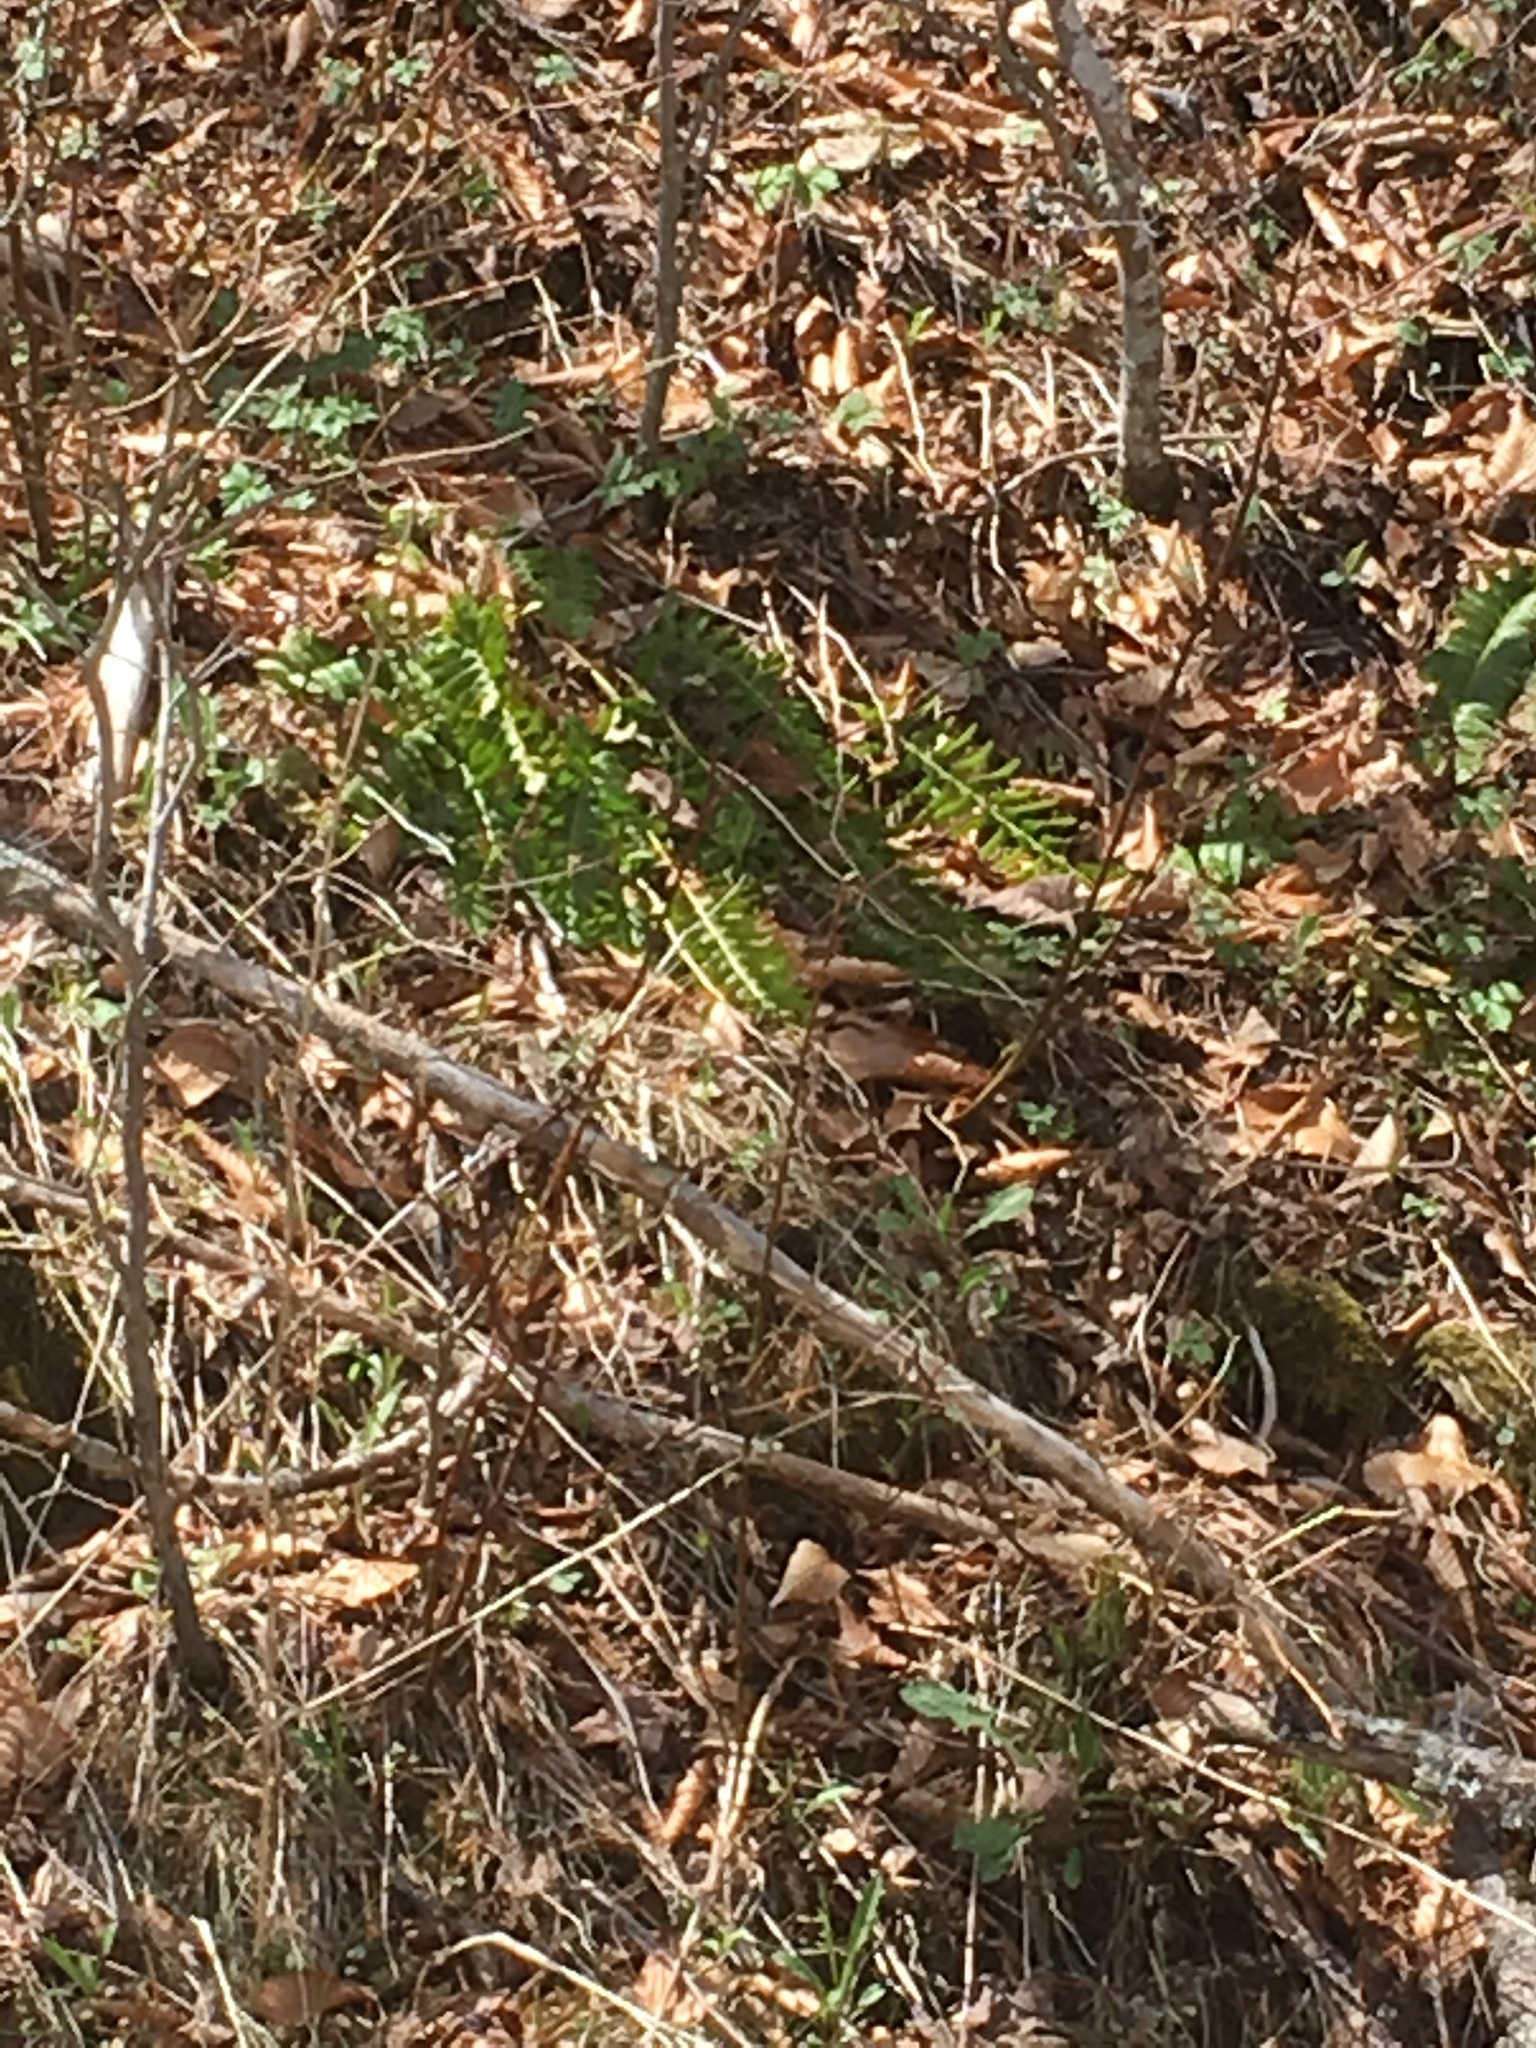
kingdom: Plantae
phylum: Tracheophyta
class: Polypodiopsida
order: Polypodiales
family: Dryopteridaceae
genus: Polystichum
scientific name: Polystichum acrostichoides
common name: Christmas fern
